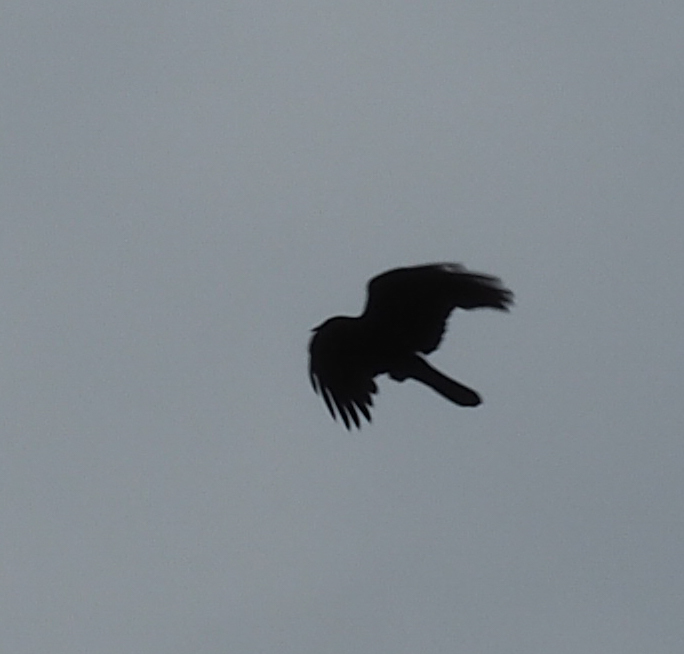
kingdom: Animalia
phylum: Chordata
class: Aves
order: Passeriformes
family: Corvidae
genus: Corvus
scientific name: Corvus ossifragus
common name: Fish crow
